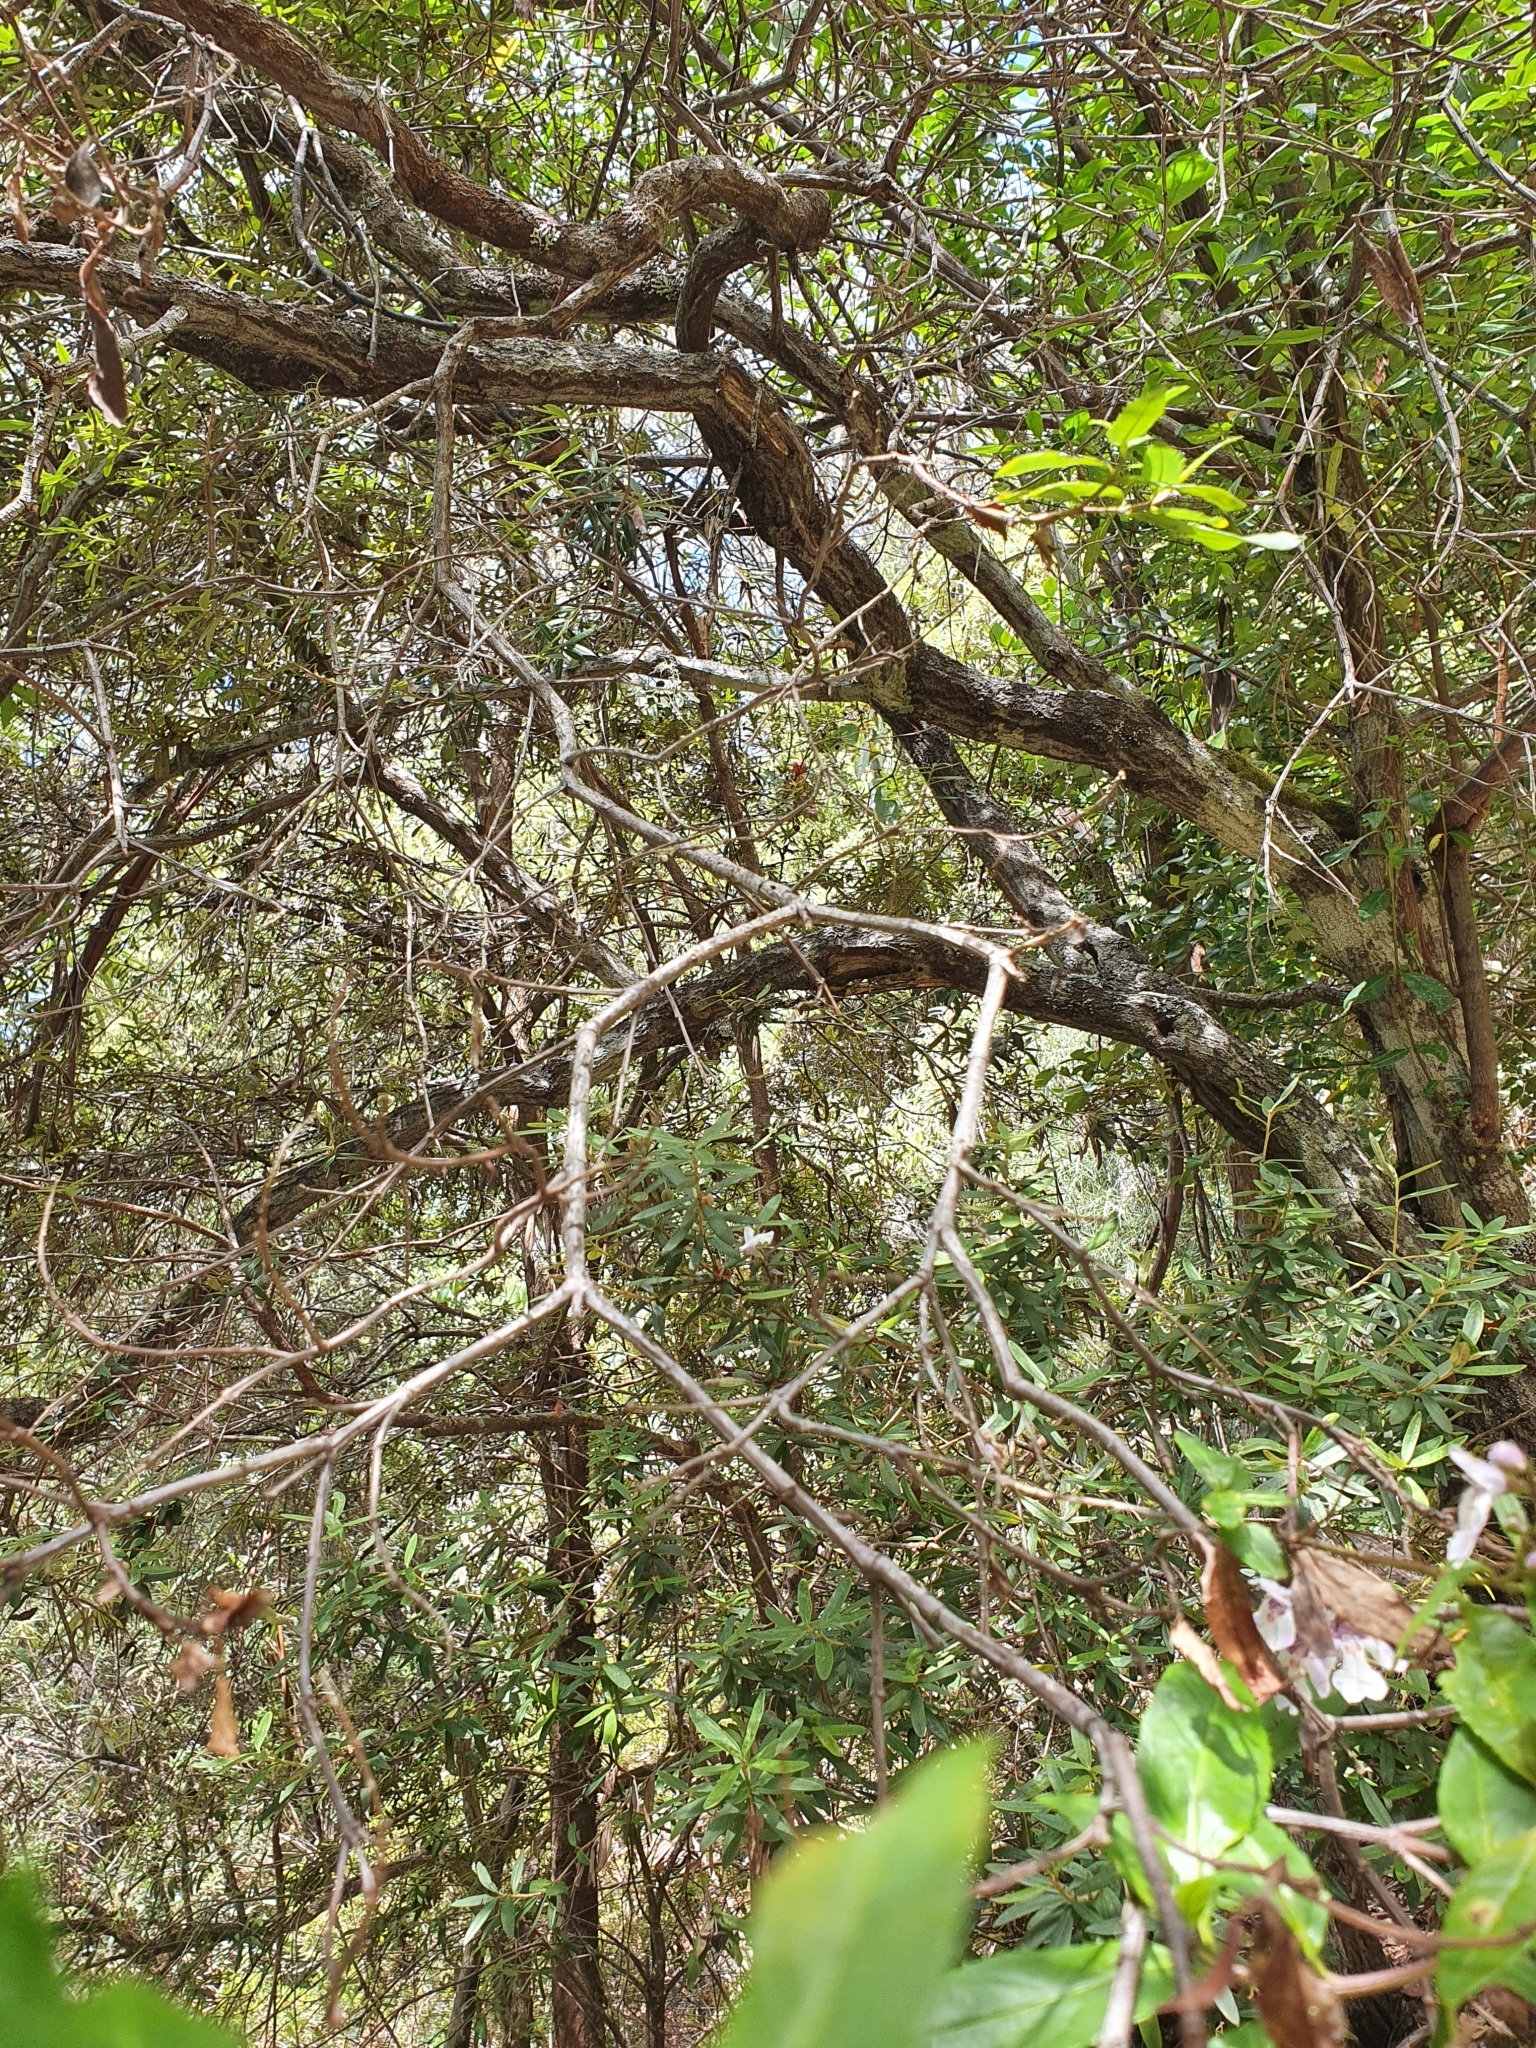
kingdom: Plantae
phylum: Tracheophyta
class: Magnoliopsida
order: Lamiales
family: Lamiaceae
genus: Prostanthera
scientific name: Prostanthera lasianthos
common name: Mountain-lilac
